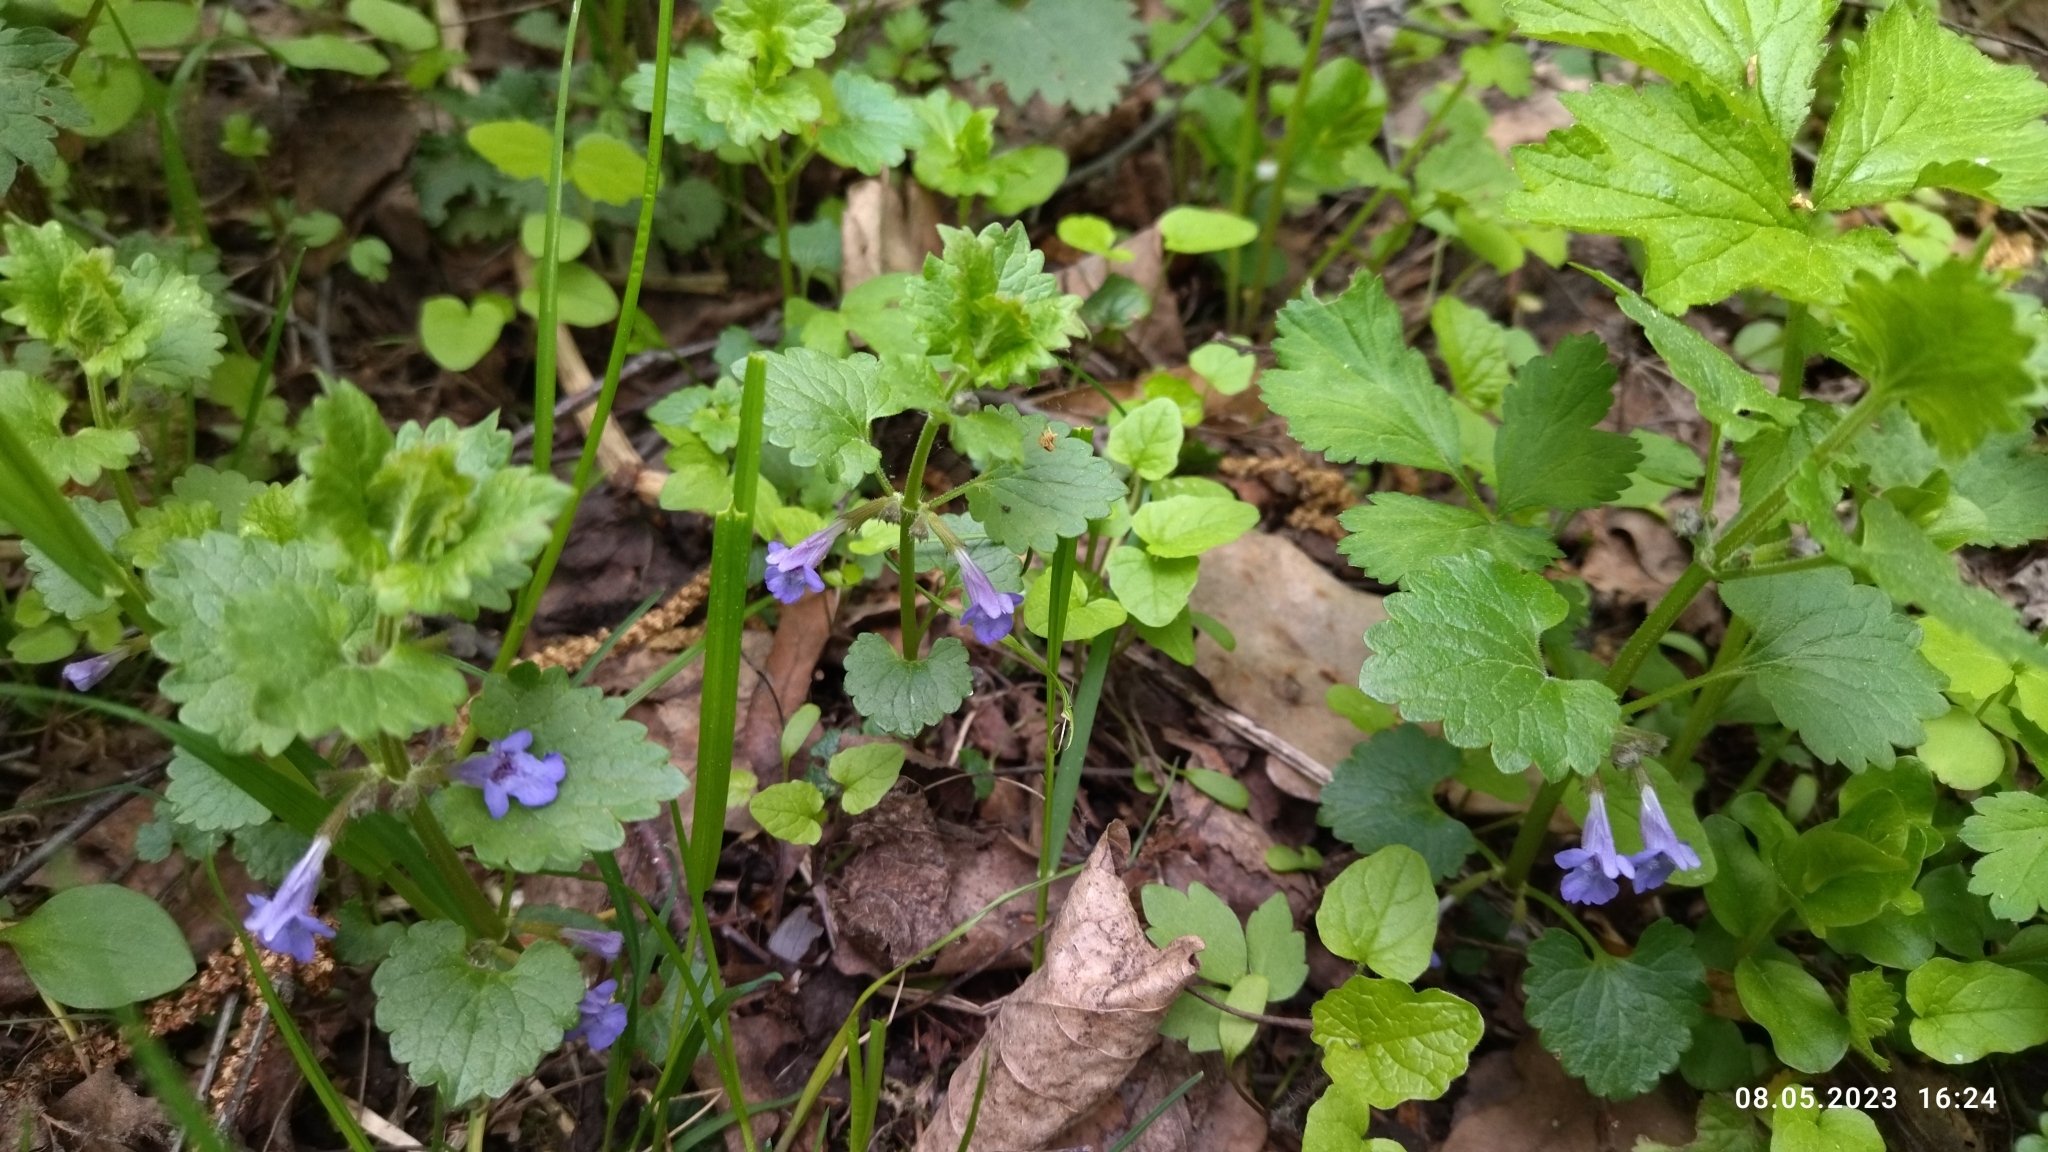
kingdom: Plantae
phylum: Tracheophyta
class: Magnoliopsida
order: Lamiales
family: Lamiaceae
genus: Glechoma
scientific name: Glechoma hederacea
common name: Ground ivy
